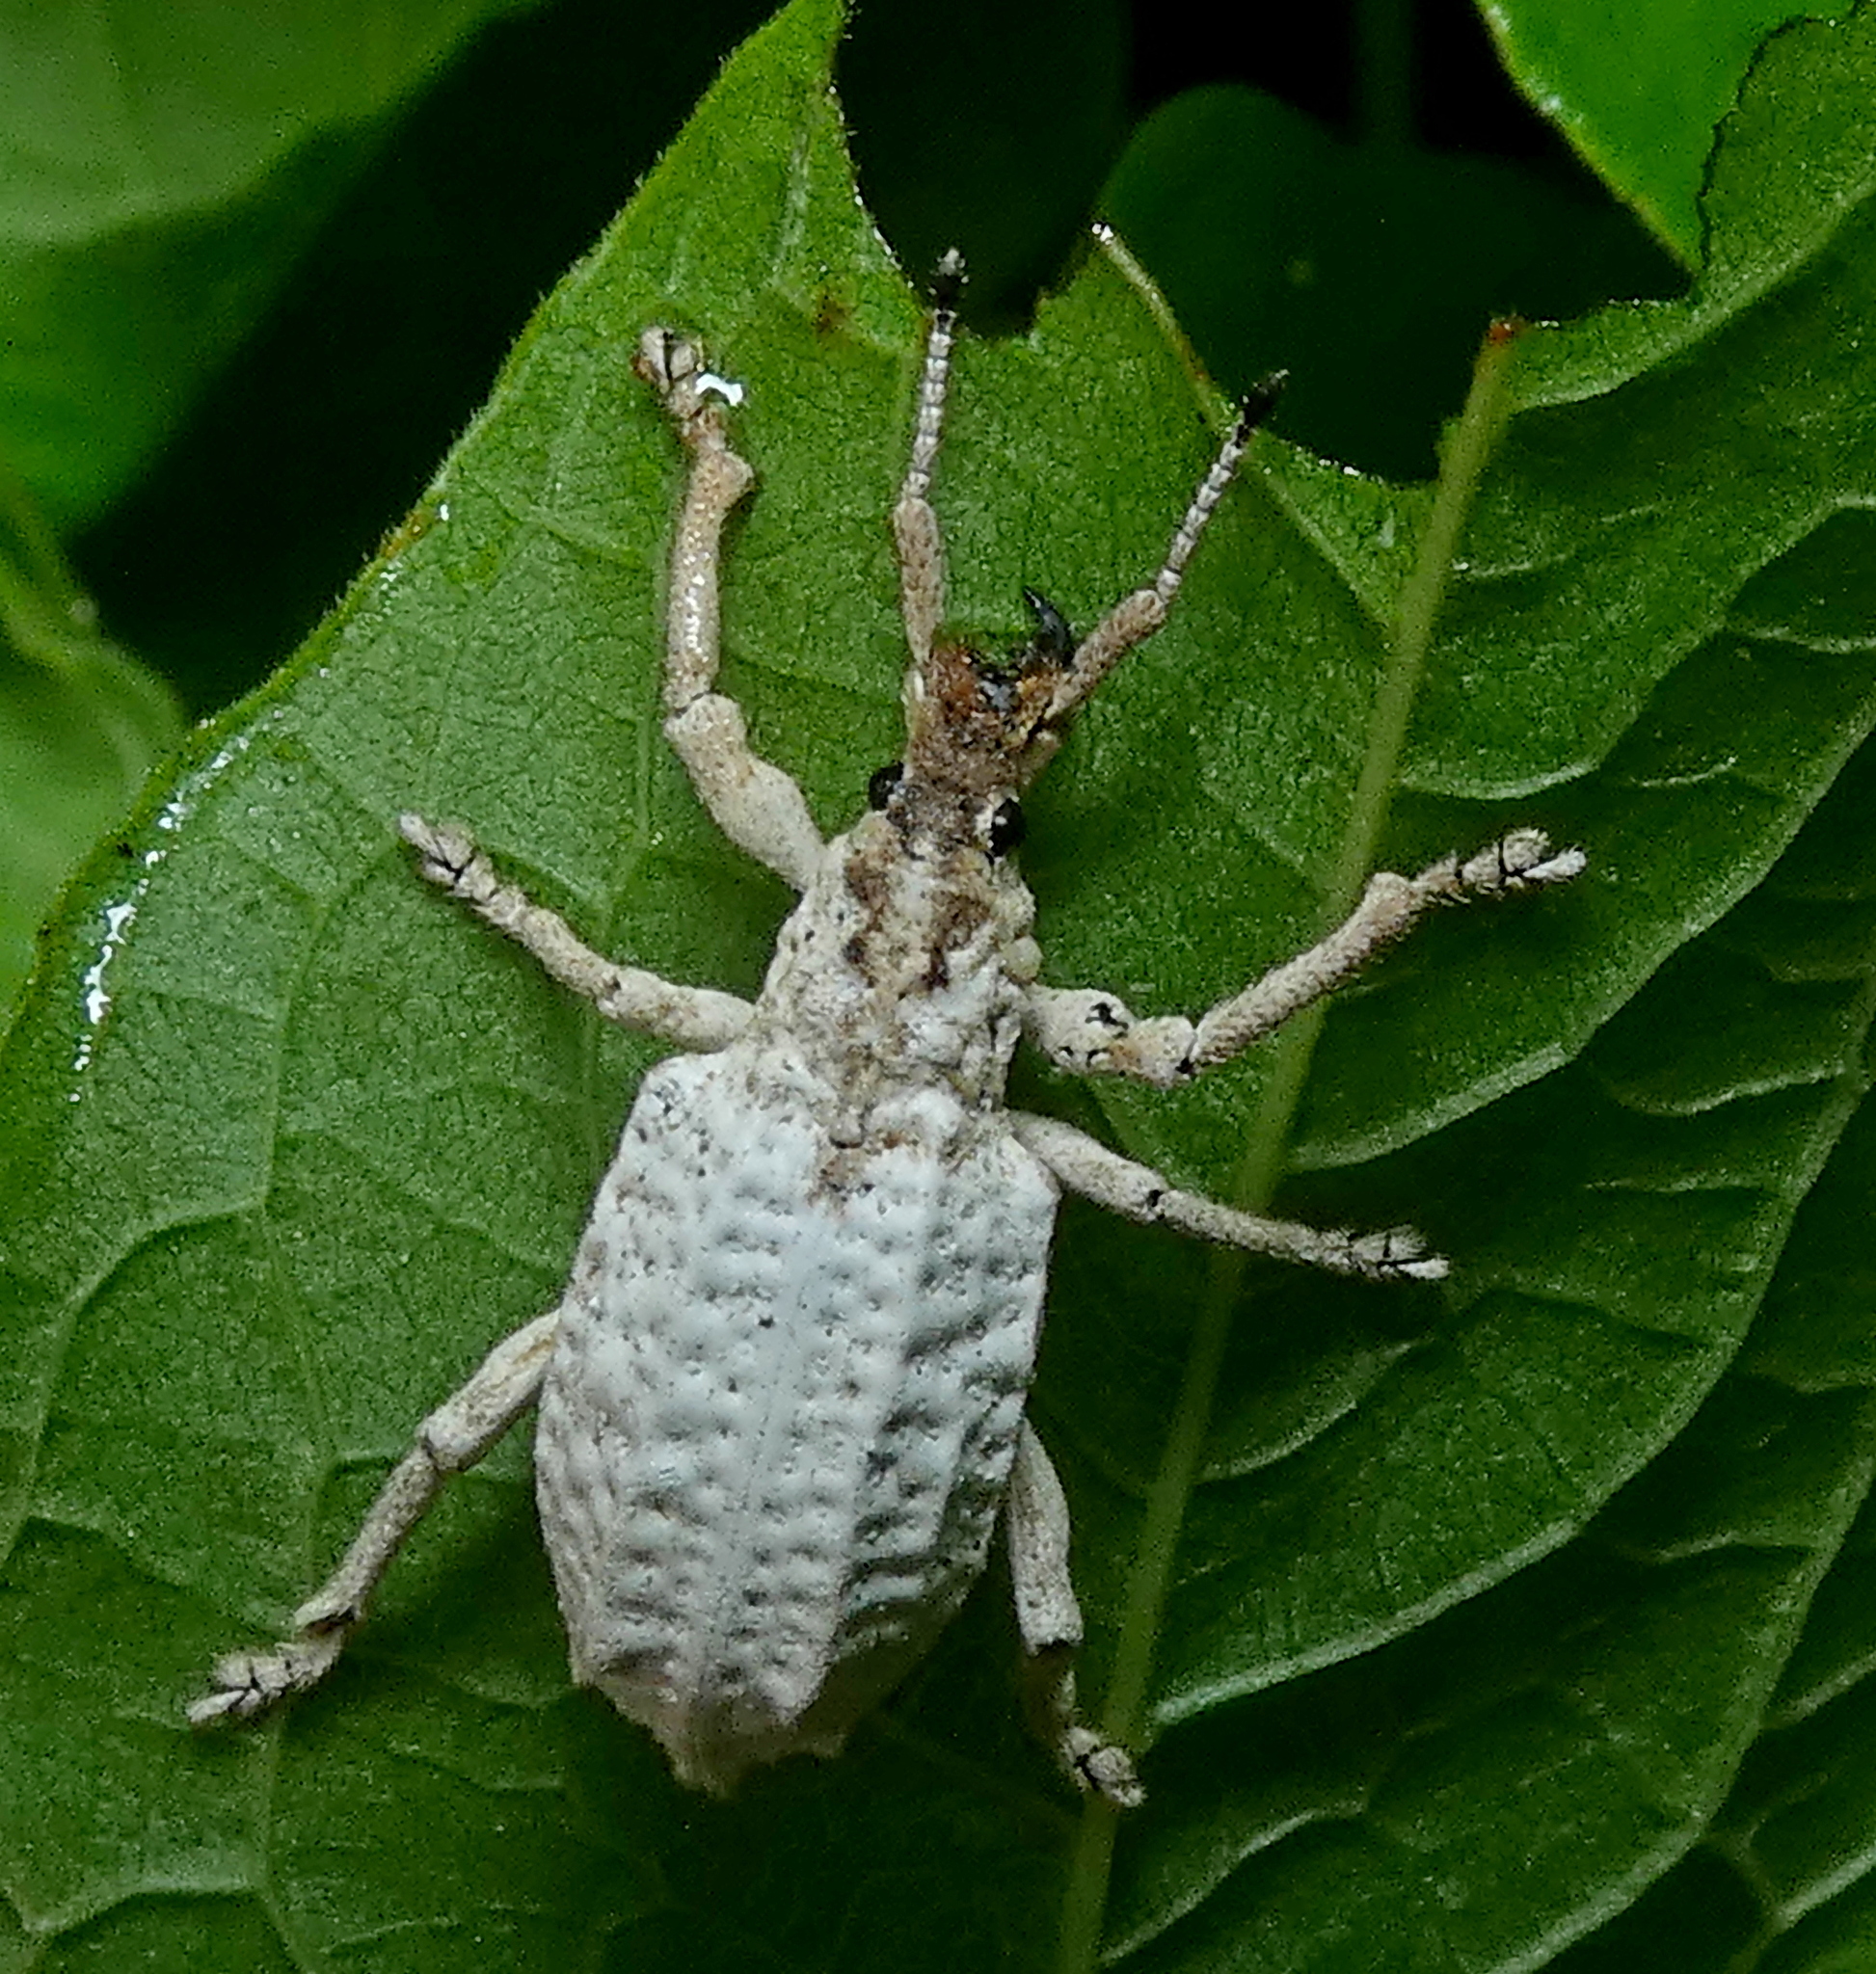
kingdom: Animalia
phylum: Arthropoda
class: Insecta
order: Coleoptera
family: Curculionidae
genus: Compsus
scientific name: Compsus niveus
